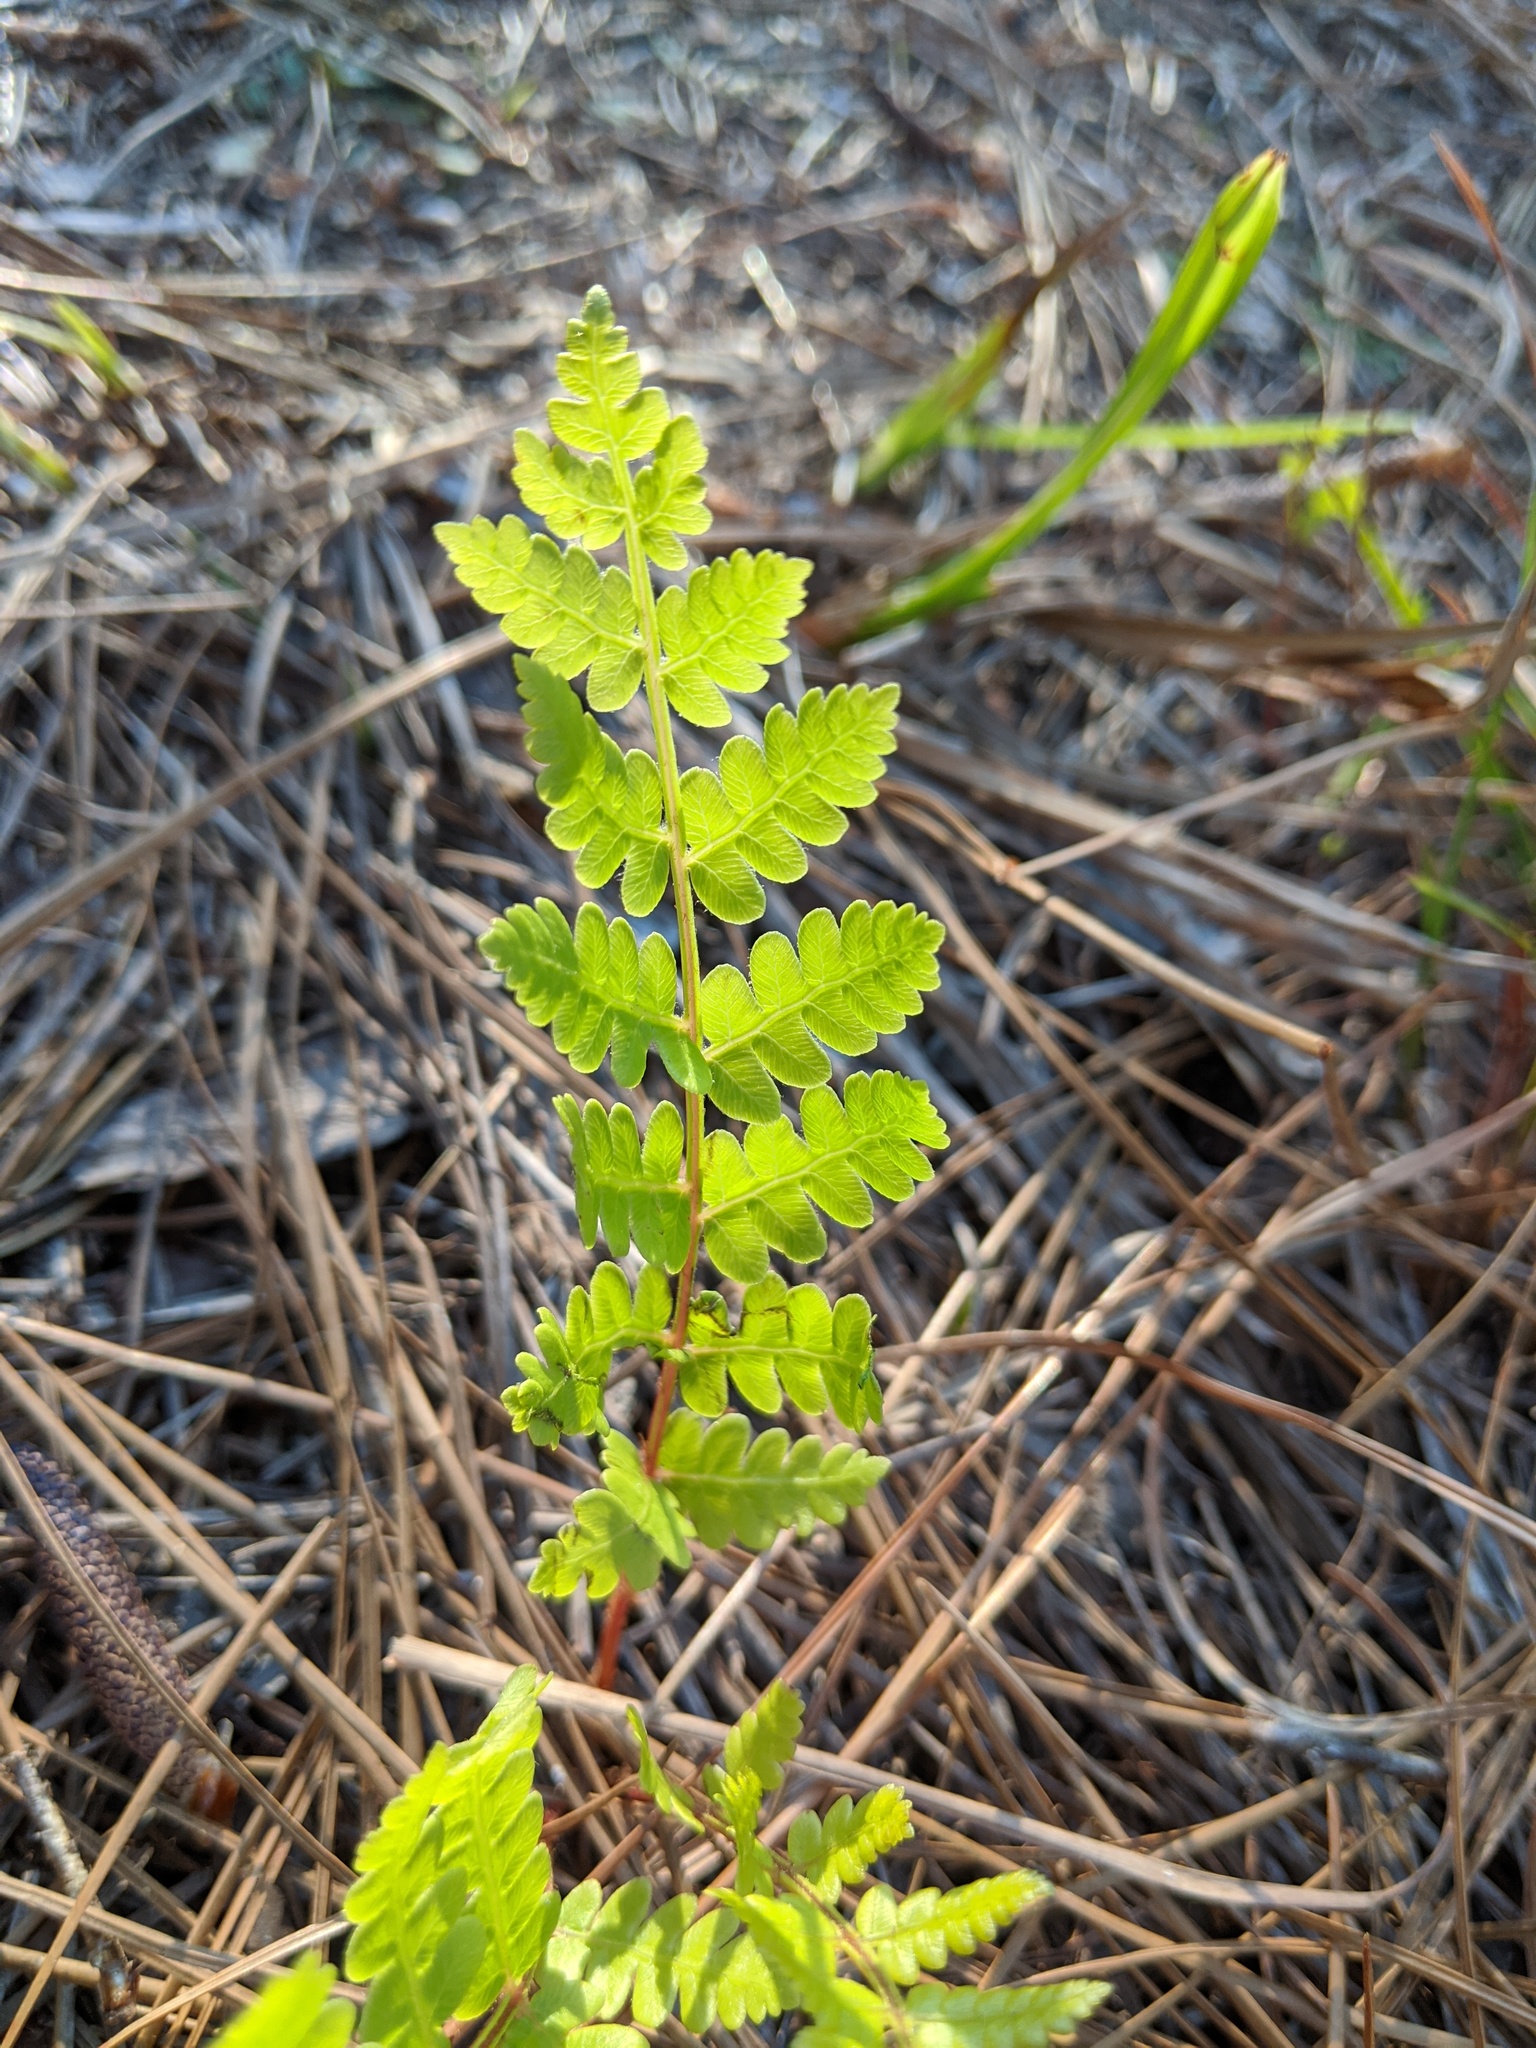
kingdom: Plantae
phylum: Tracheophyta
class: Polypodiopsida
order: Osmundales
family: Osmundaceae
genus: Osmundastrum
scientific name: Osmundastrum cinnamomeum
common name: Cinnamon fern
